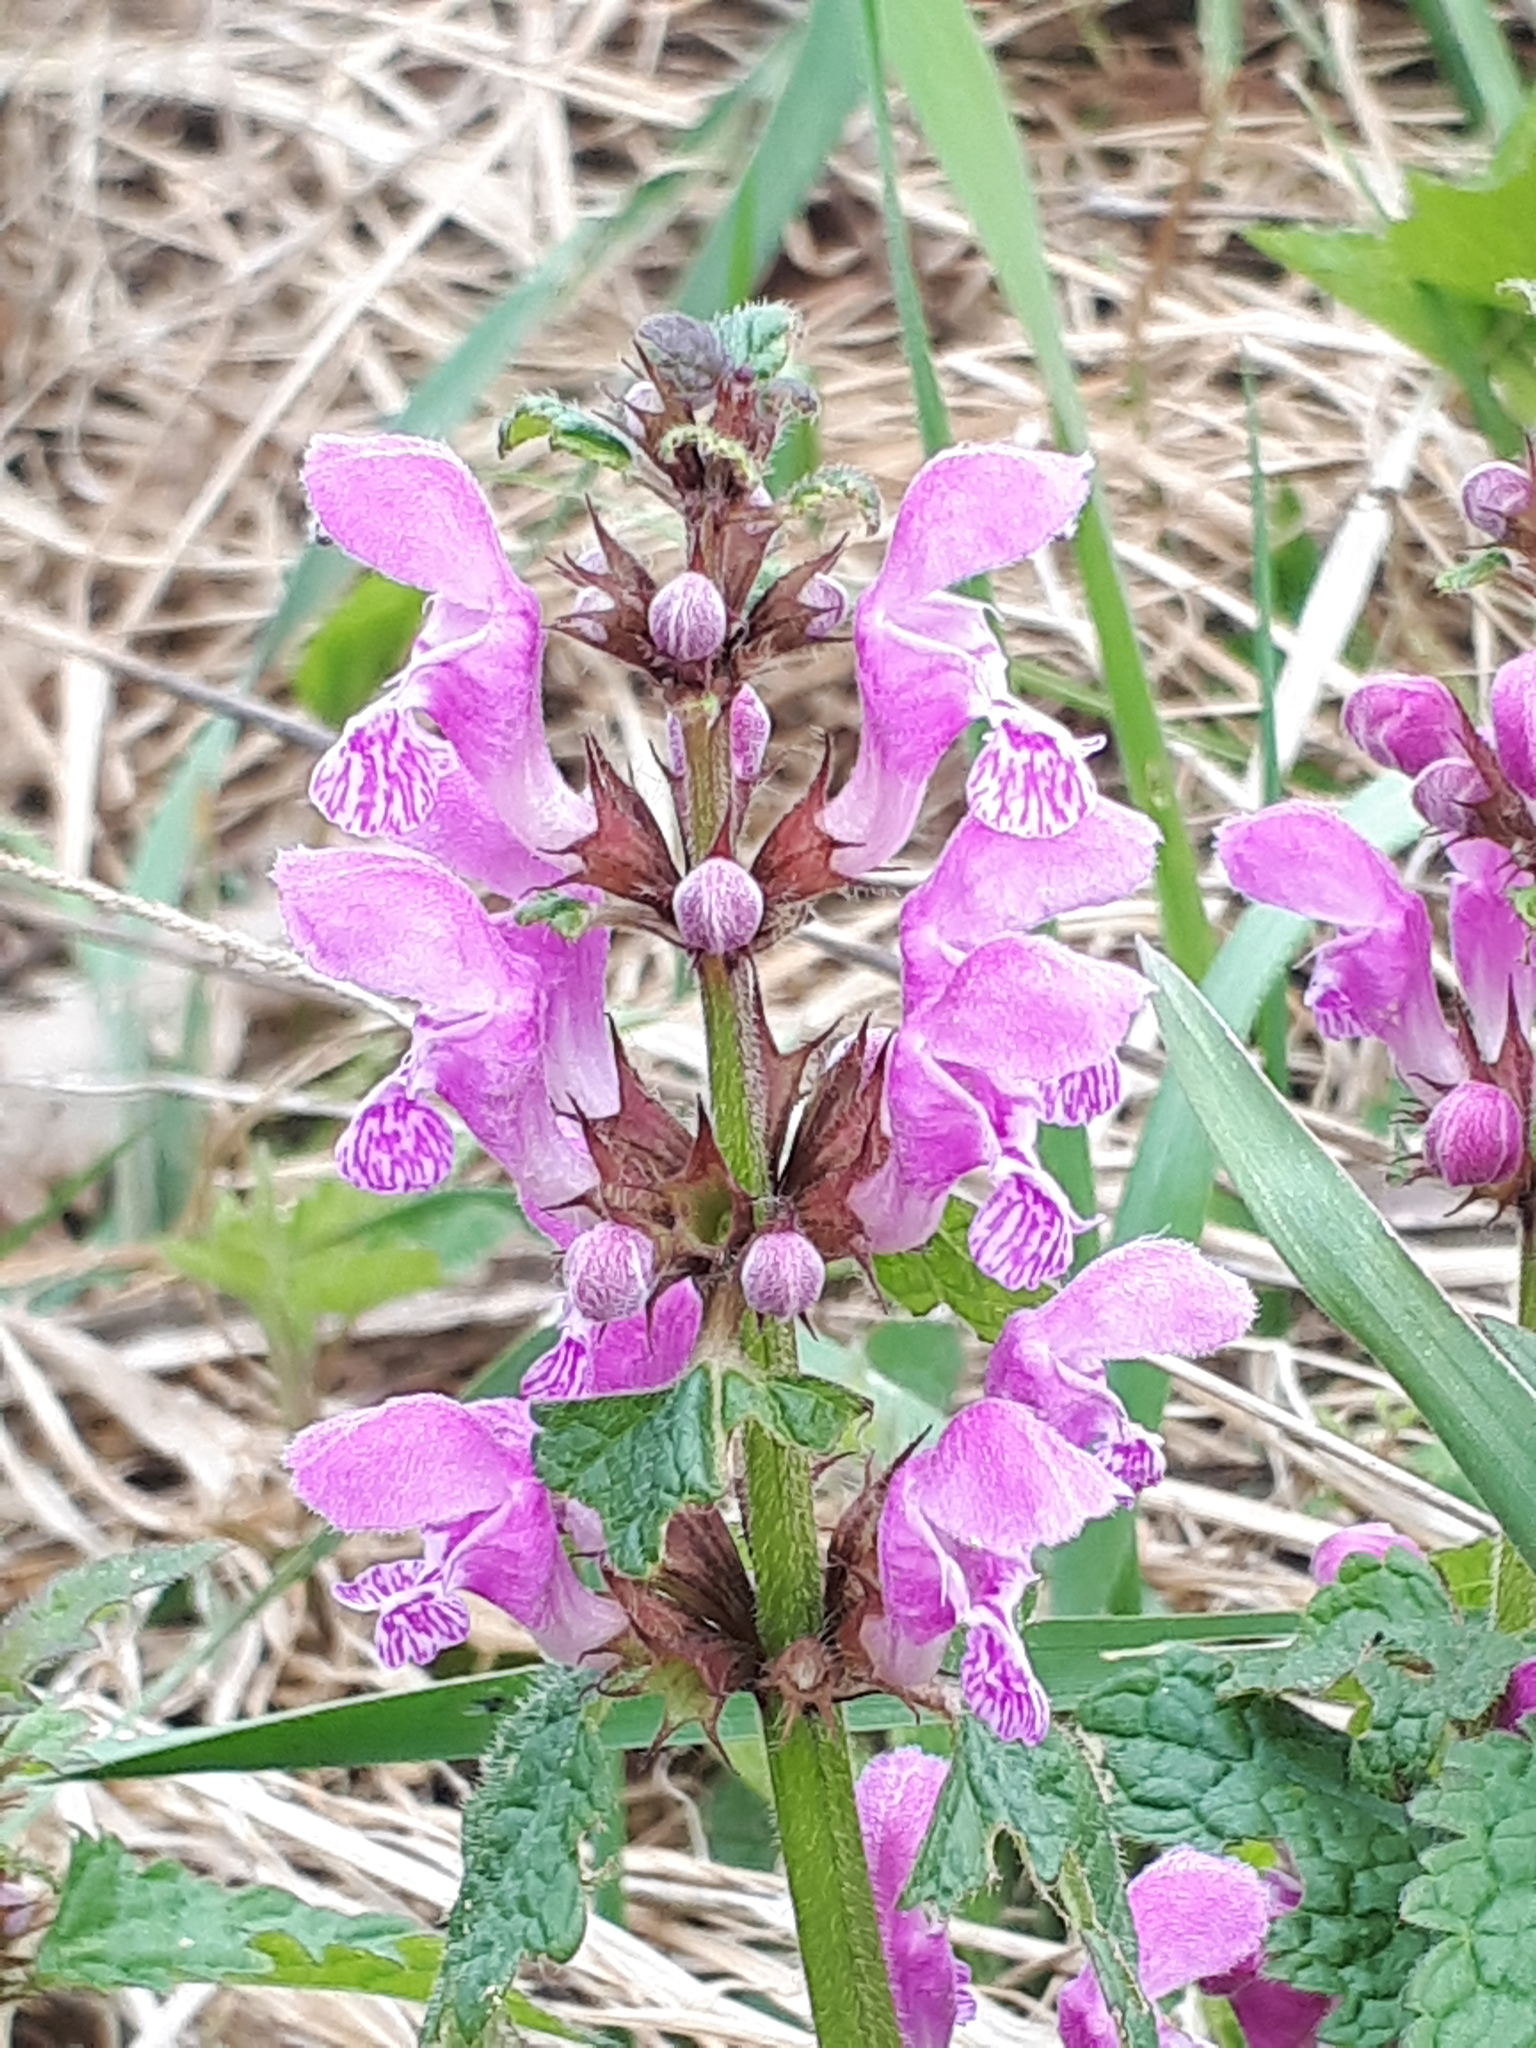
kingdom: Plantae
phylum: Tracheophyta
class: Magnoliopsida
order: Lamiales
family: Lamiaceae
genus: Lamium
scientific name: Lamium maculatum
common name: Spotted dead-nettle
